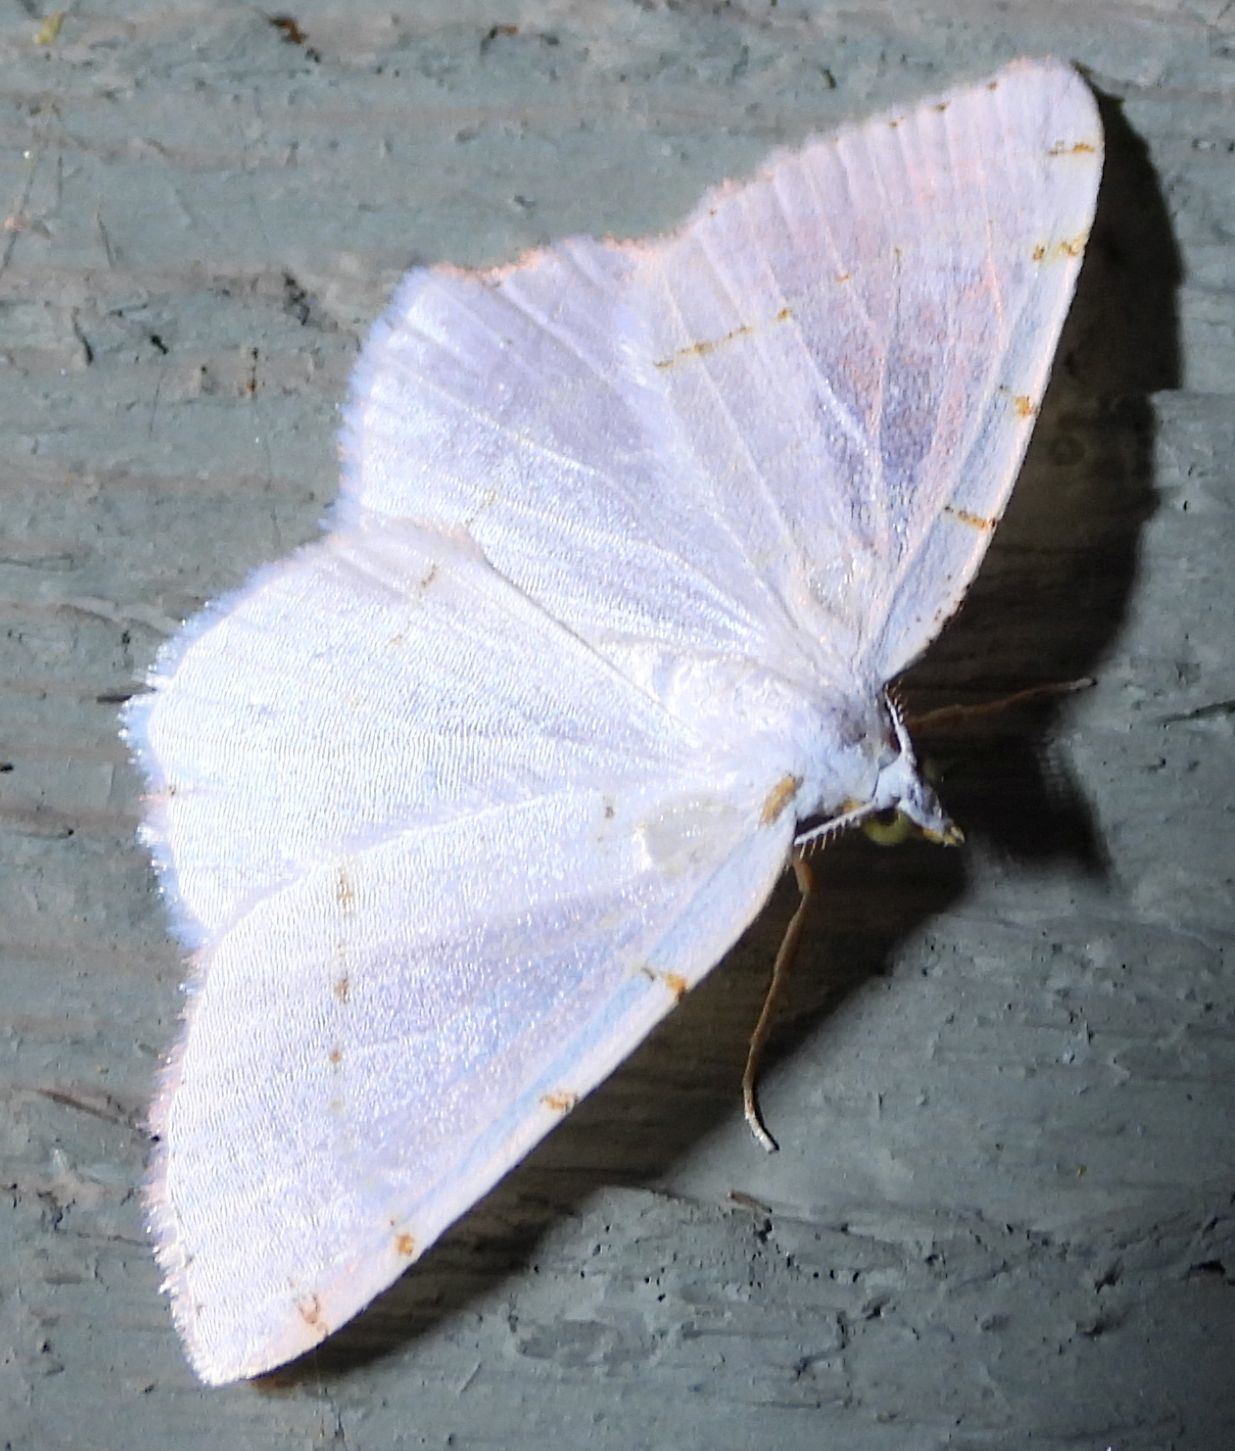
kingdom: Animalia
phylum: Arthropoda
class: Insecta
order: Lepidoptera
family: Geometridae
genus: Macaria
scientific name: Macaria pustularia
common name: Lesser maple spanworm moth
